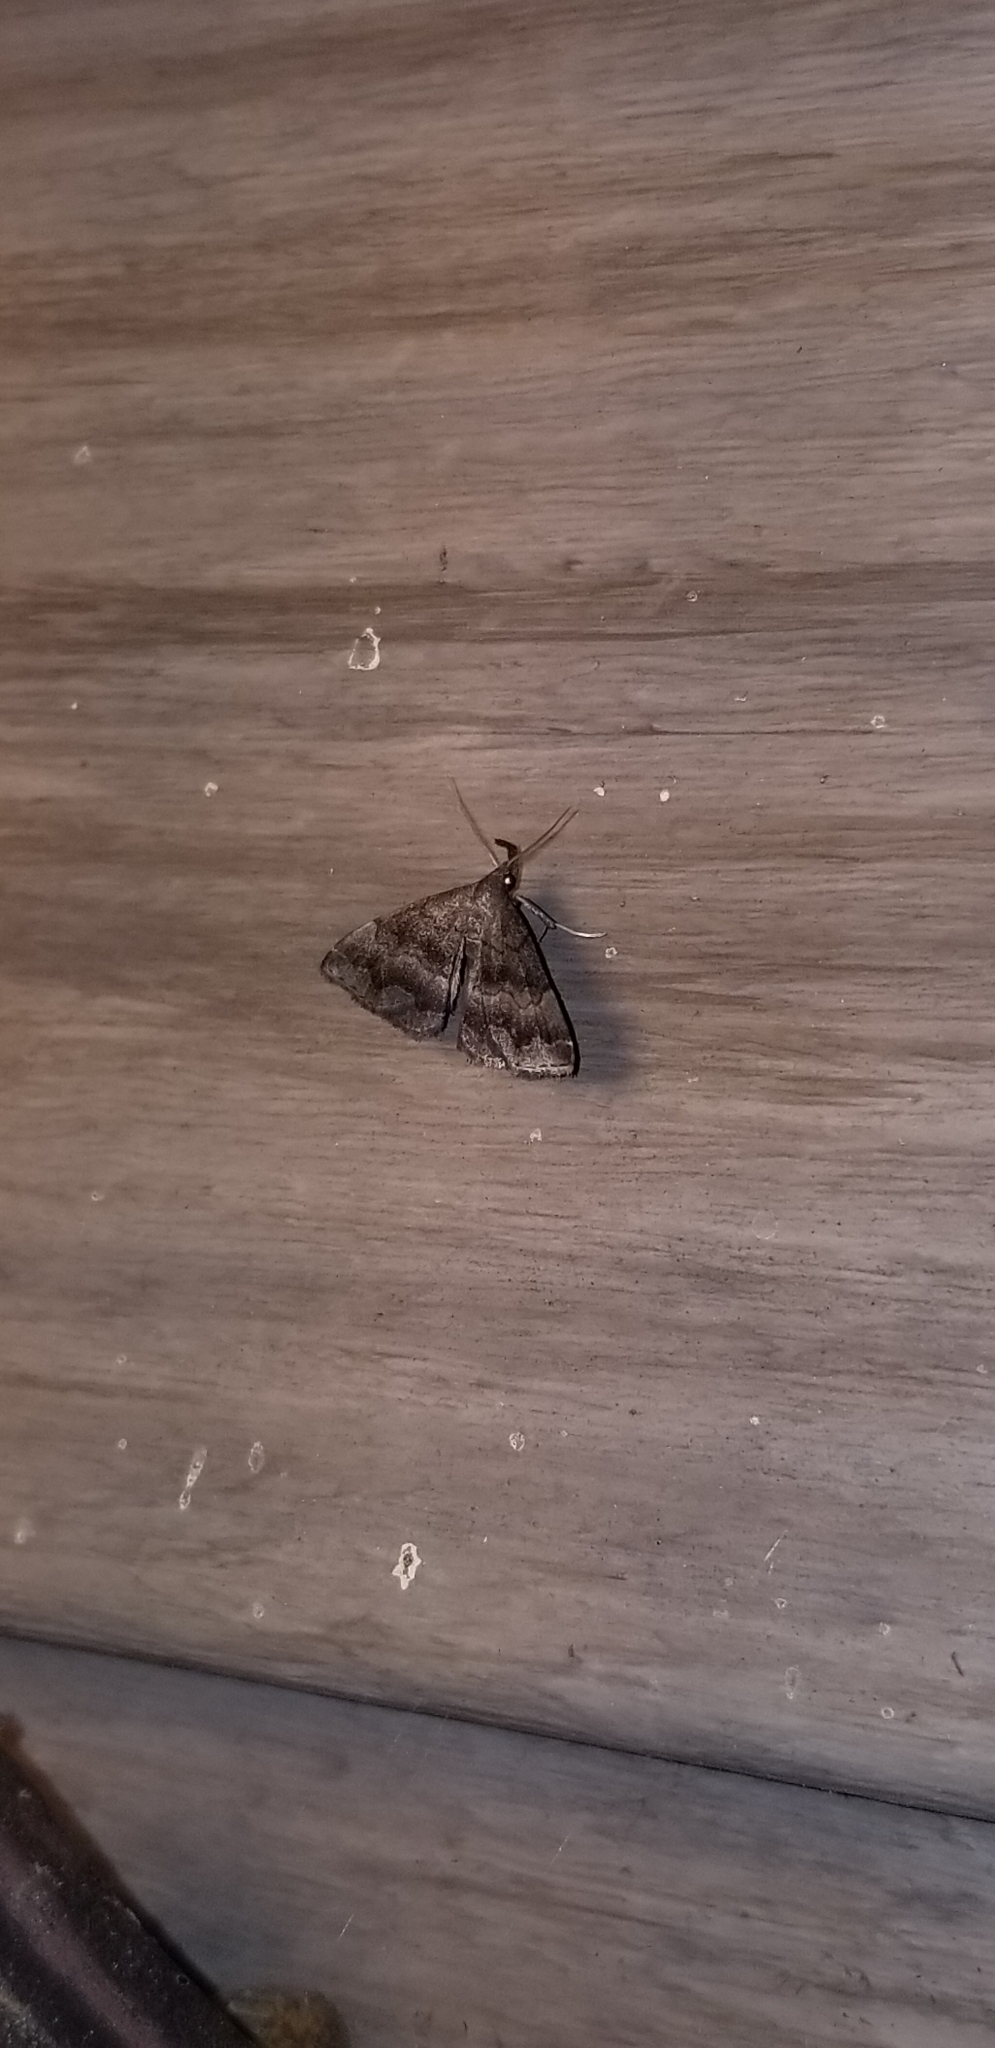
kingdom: Animalia
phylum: Arthropoda
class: Insecta
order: Lepidoptera
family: Erebidae
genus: Phalaenostola
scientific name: Phalaenostola larentioides
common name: Black-banded owlet
